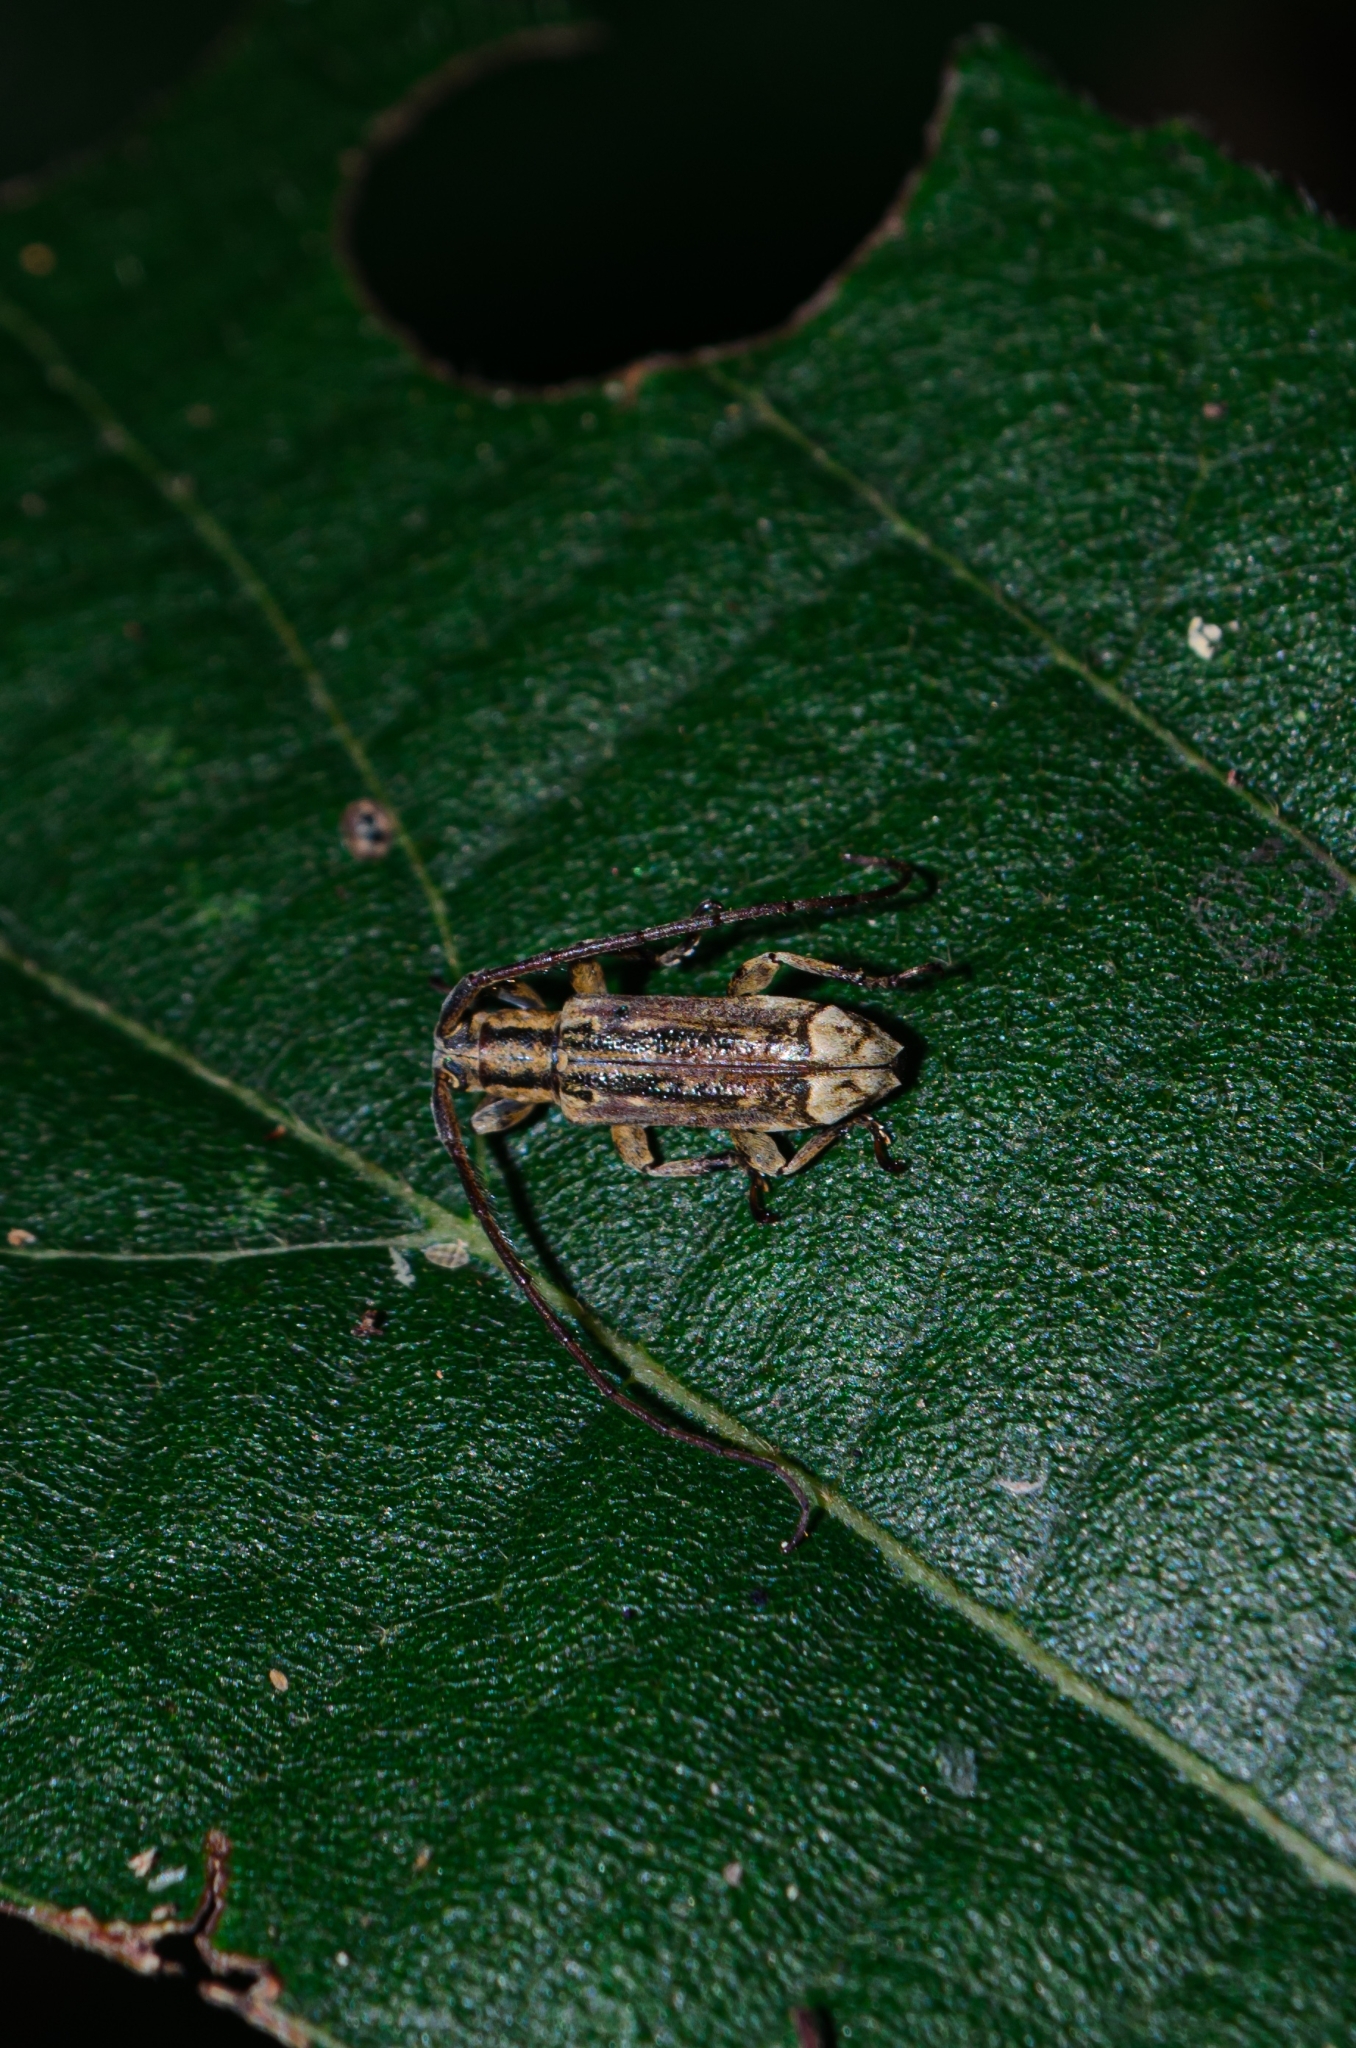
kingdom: Animalia
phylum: Arthropoda
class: Insecta
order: Coleoptera
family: Cerambycidae
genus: Rosalba
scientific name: Rosalba alboapicalis
